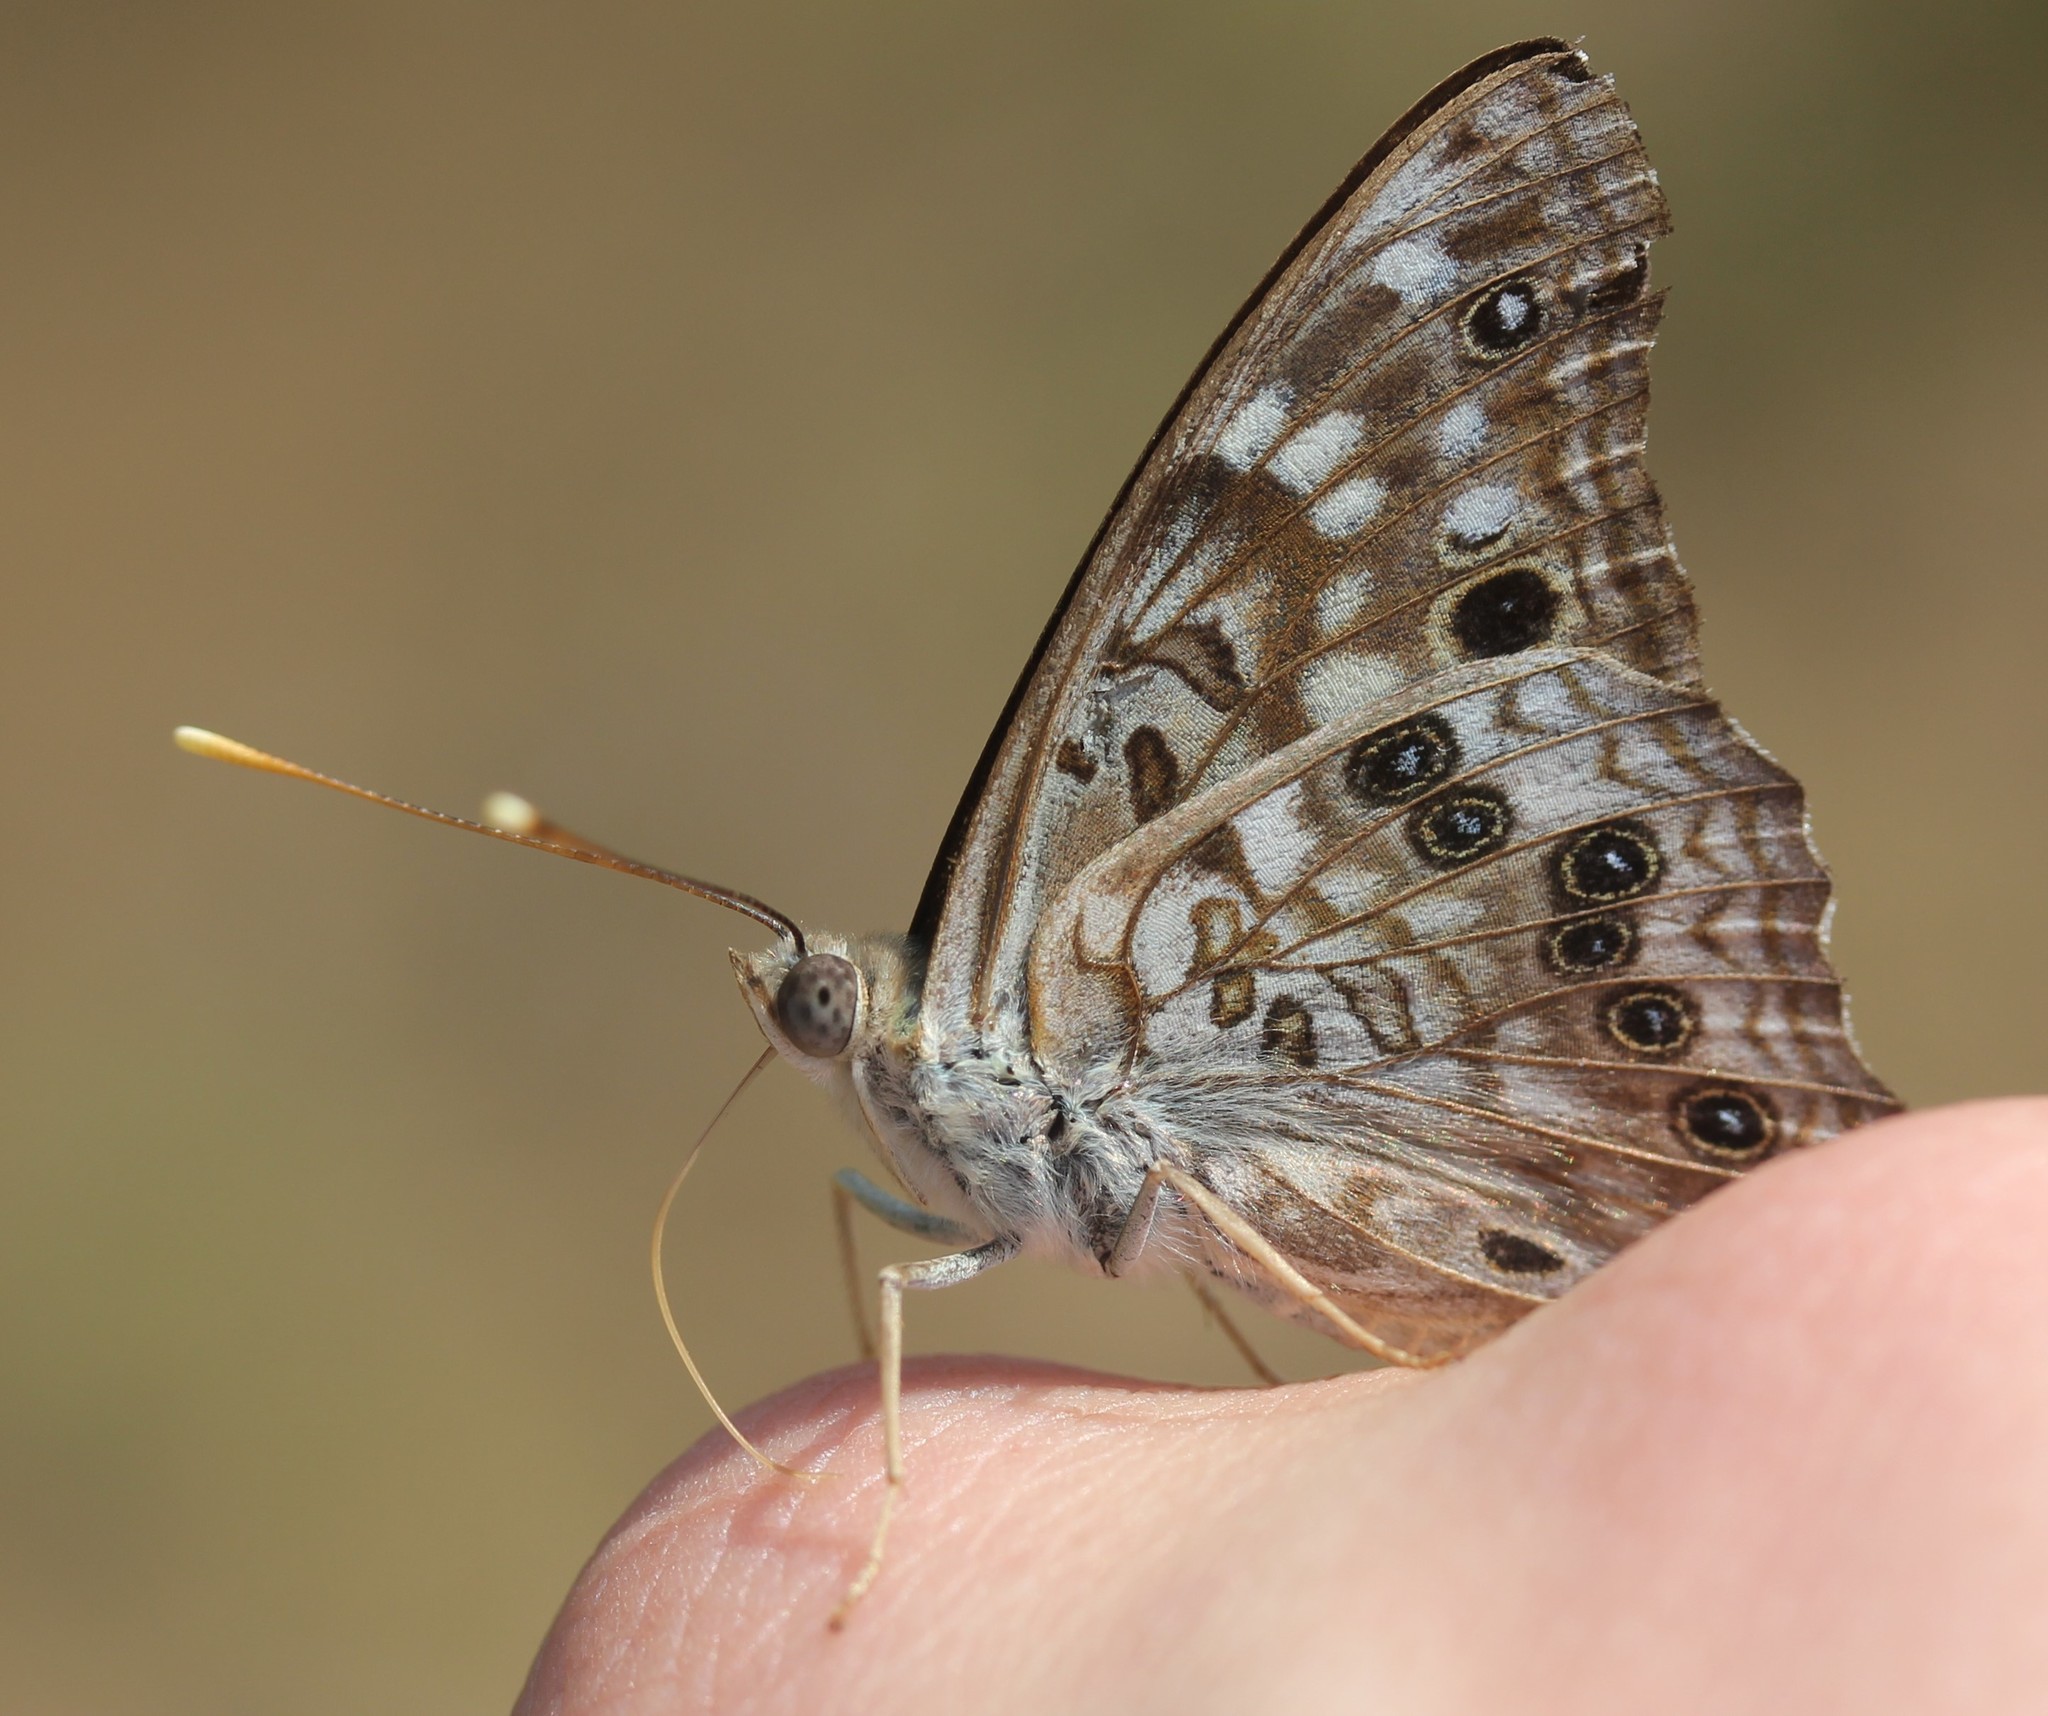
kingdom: Animalia
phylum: Arthropoda
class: Insecta
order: Lepidoptera
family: Nymphalidae
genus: Asterocampa
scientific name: Asterocampa celtis
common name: Hackberry emperor
